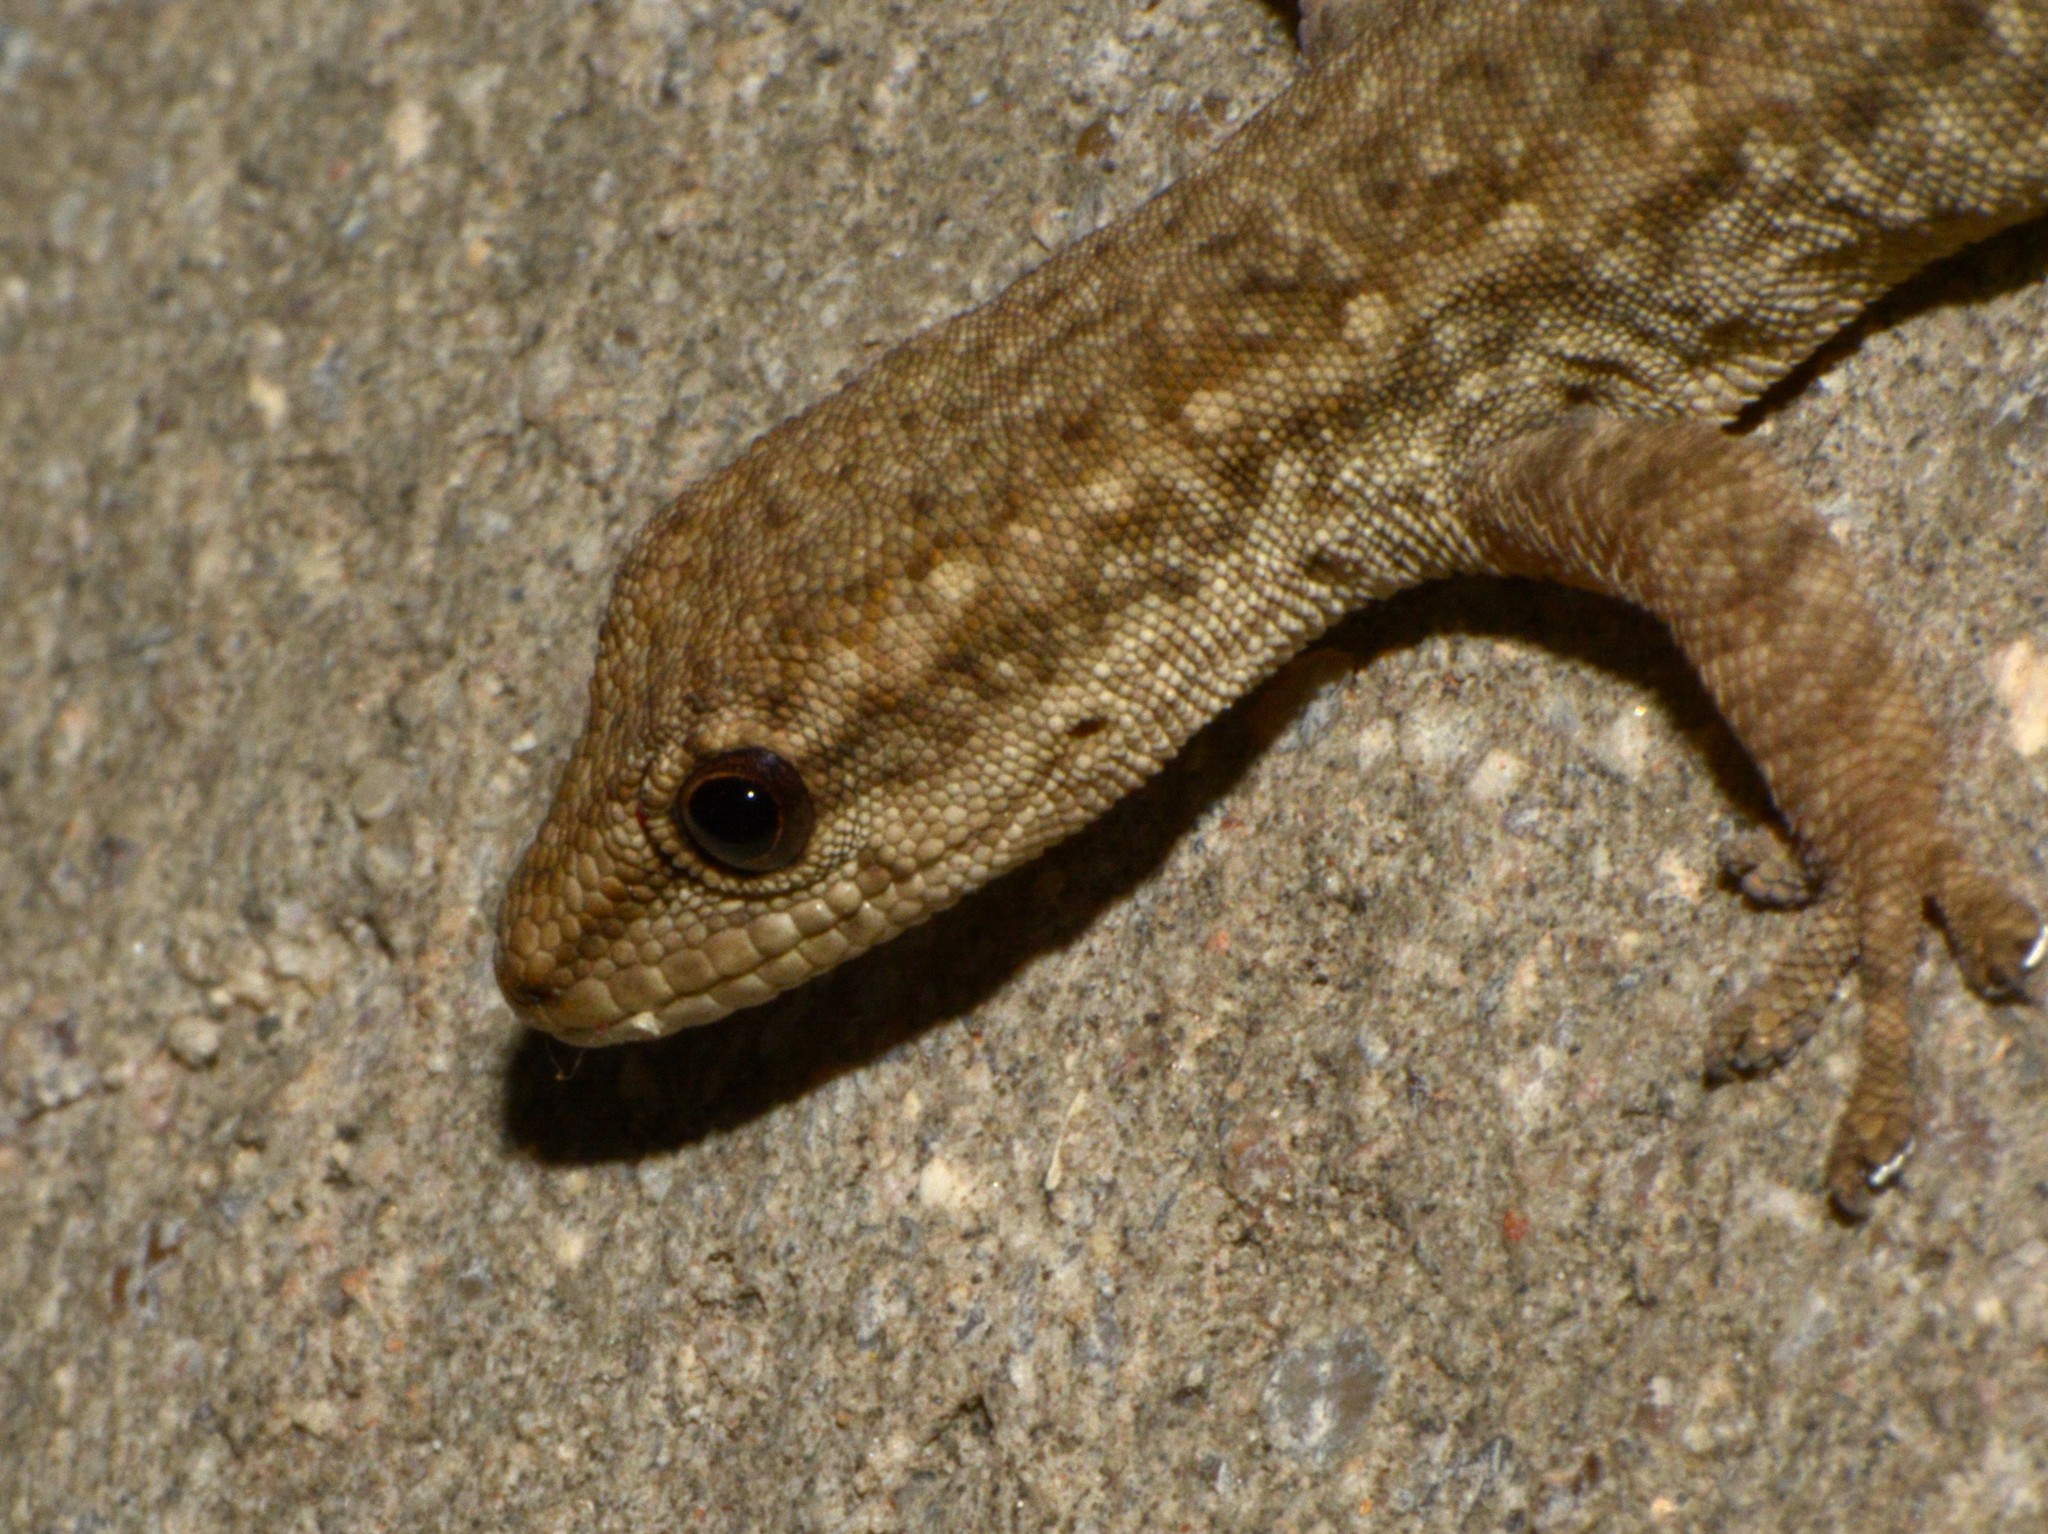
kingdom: Animalia
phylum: Chordata
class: Squamata
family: Gekkonidae
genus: Lygodactylus
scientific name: Lygodactylus capensis
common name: Cape dwarf gecko
